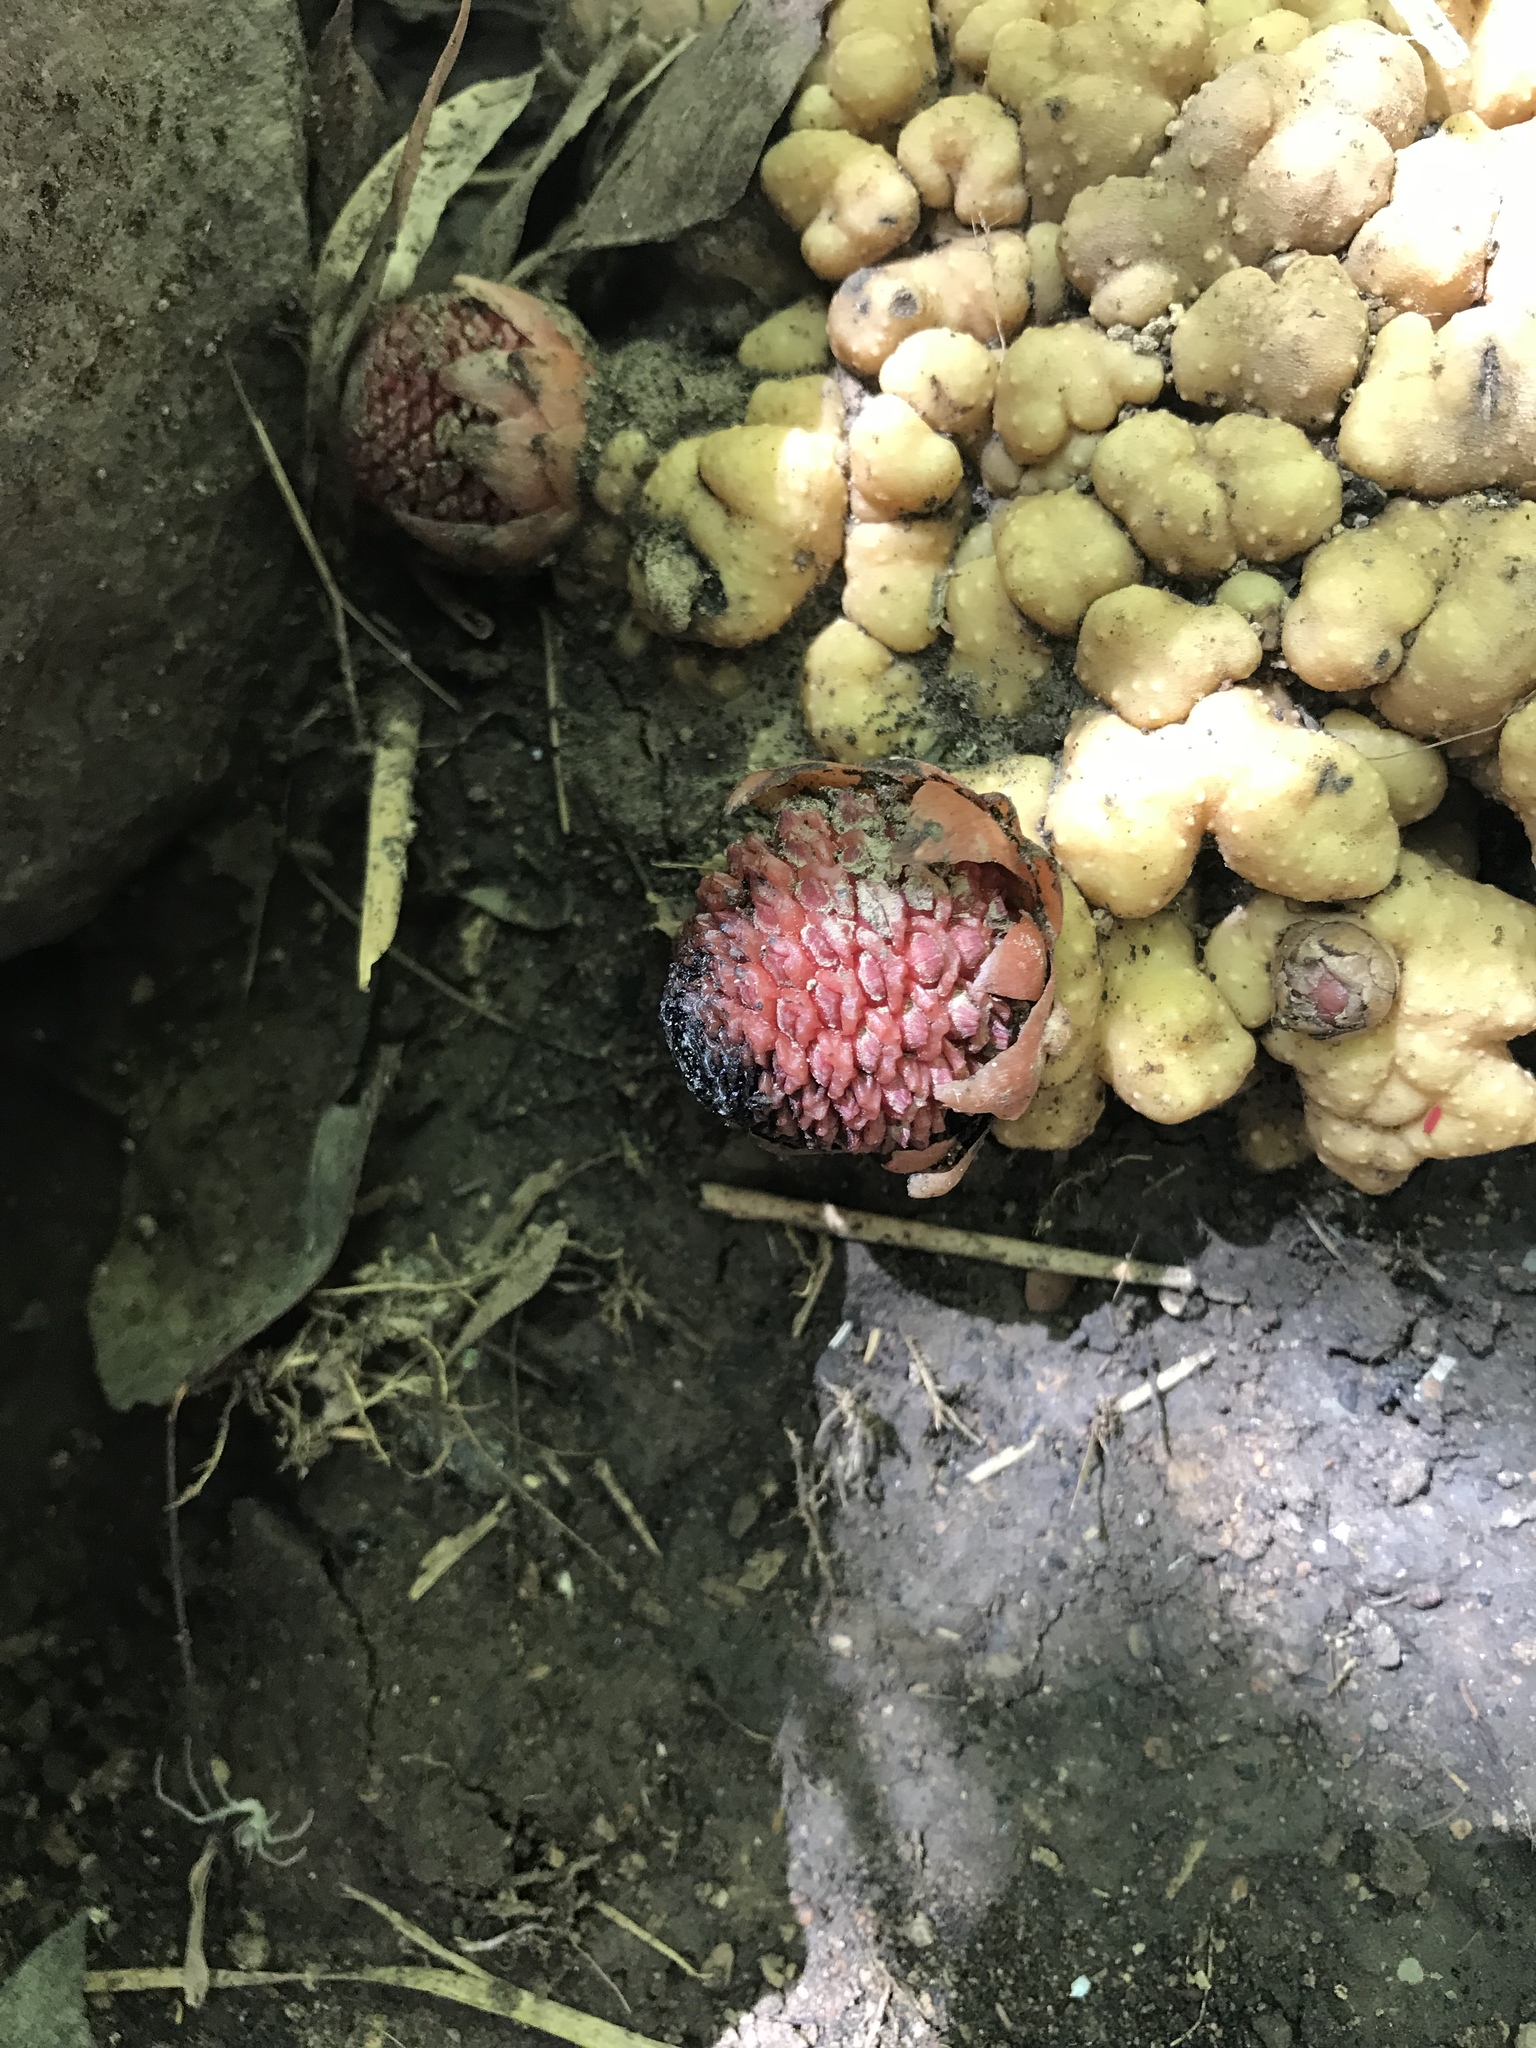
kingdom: Plantae
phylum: Tracheophyta
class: Magnoliopsida
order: Santalales
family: Balanophoraceae
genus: Balanophora
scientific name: Balanophora fungosa
